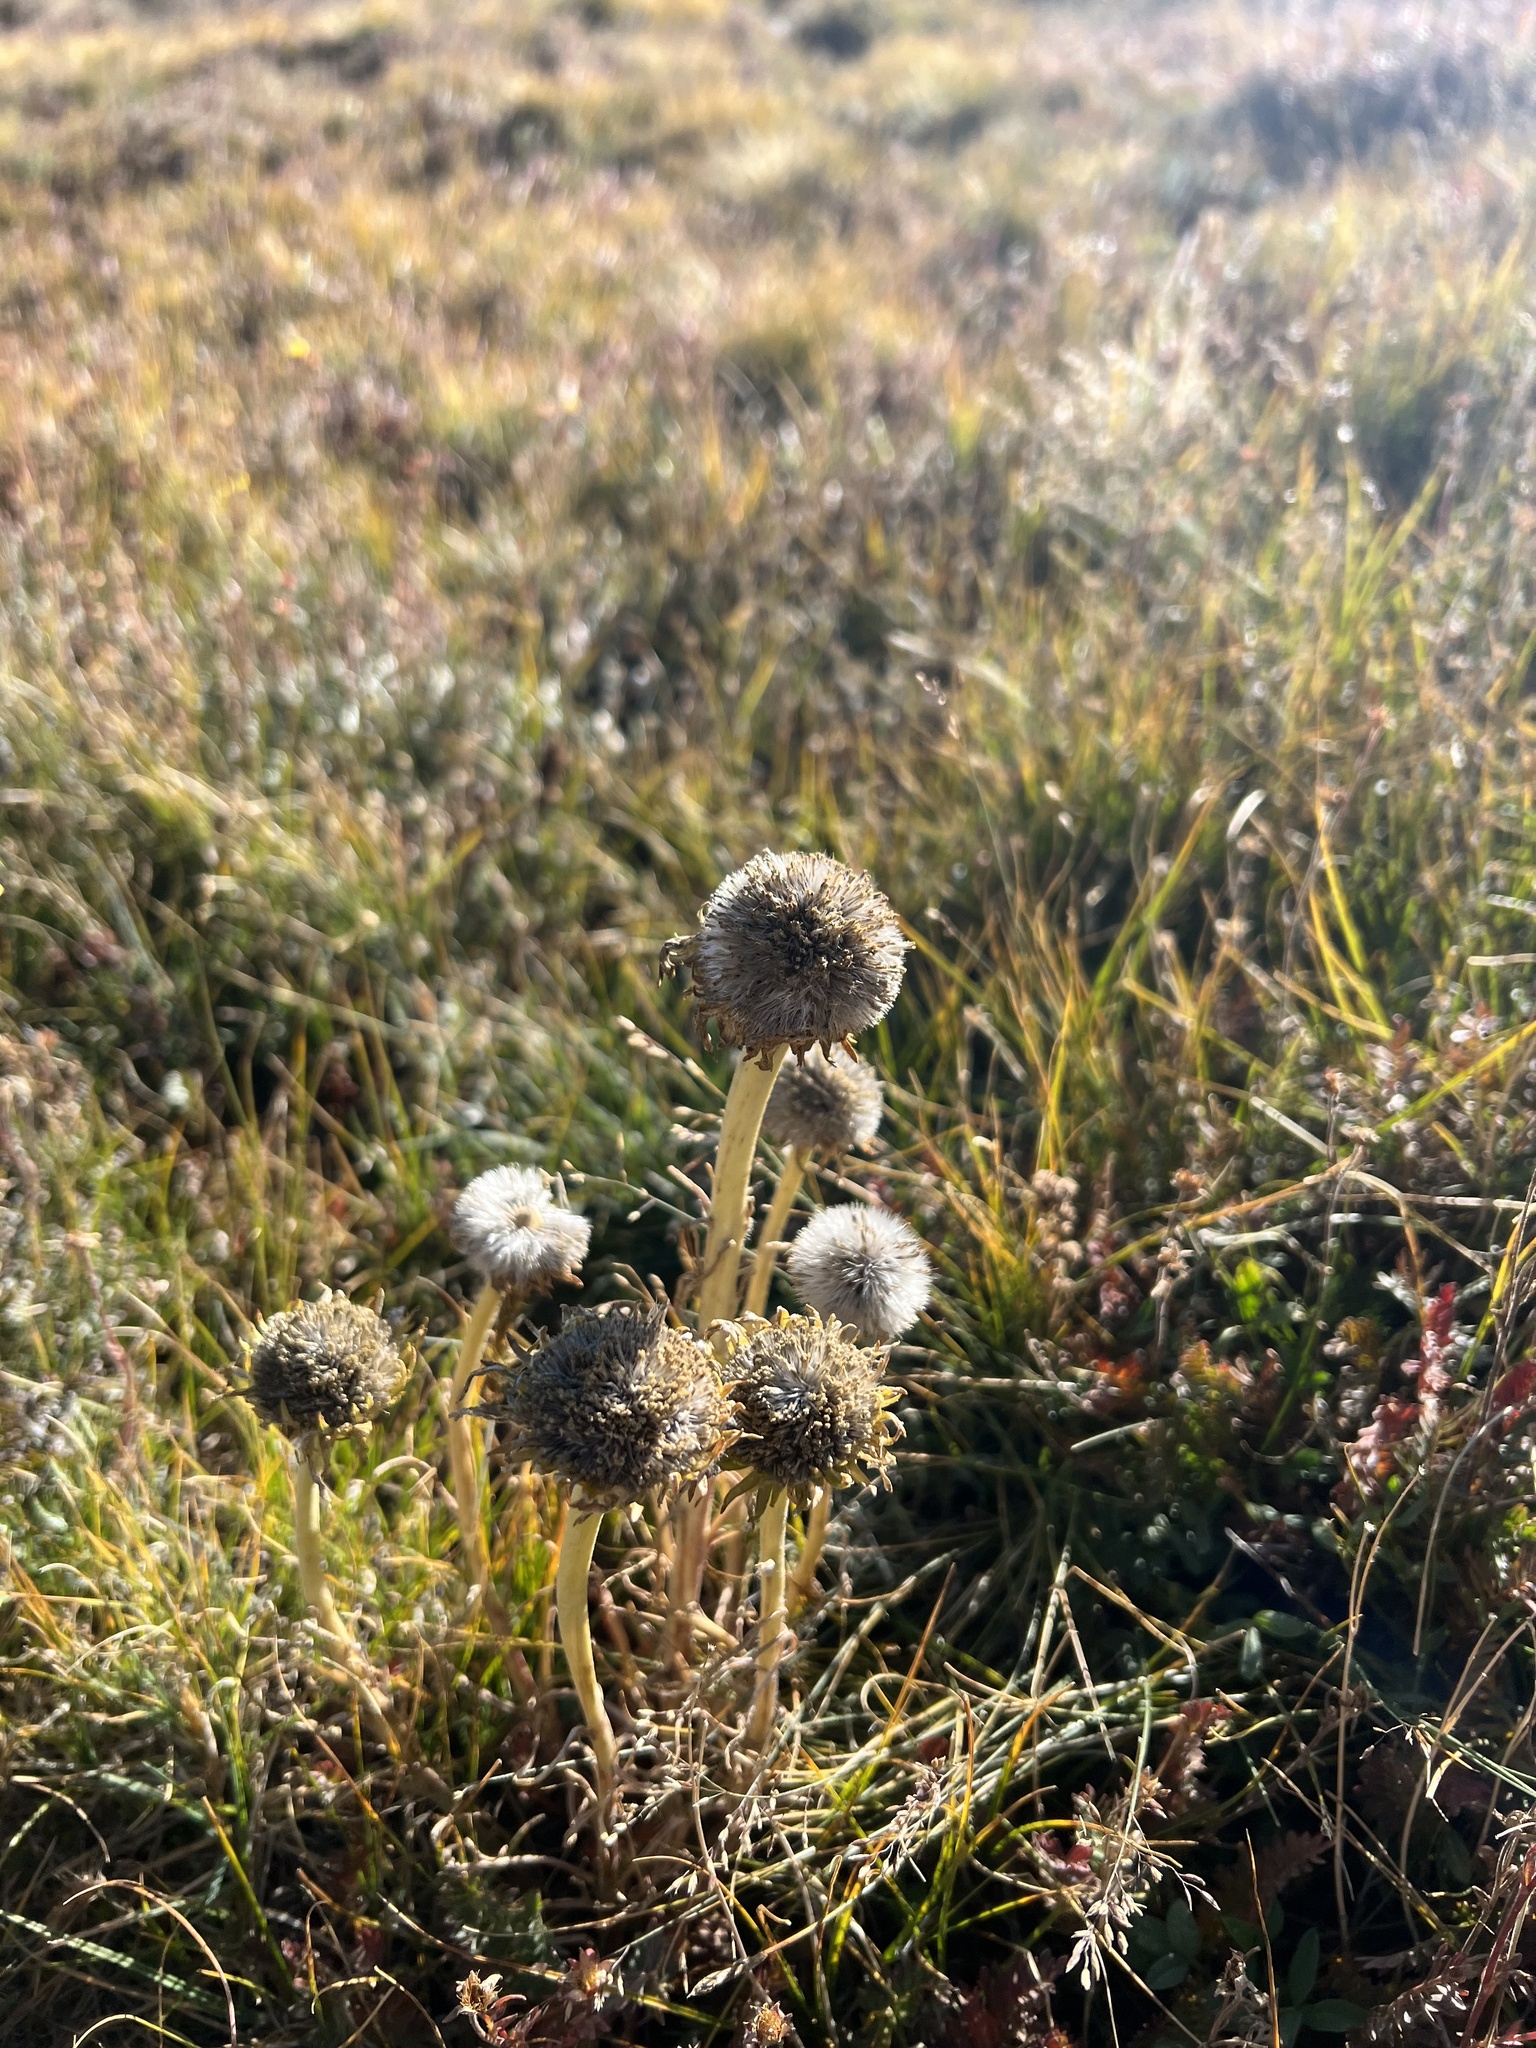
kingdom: Plantae
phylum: Tracheophyta
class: Magnoliopsida
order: Asterales
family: Asteraceae
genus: Hymenoxys
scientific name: Hymenoxys grandiflora
